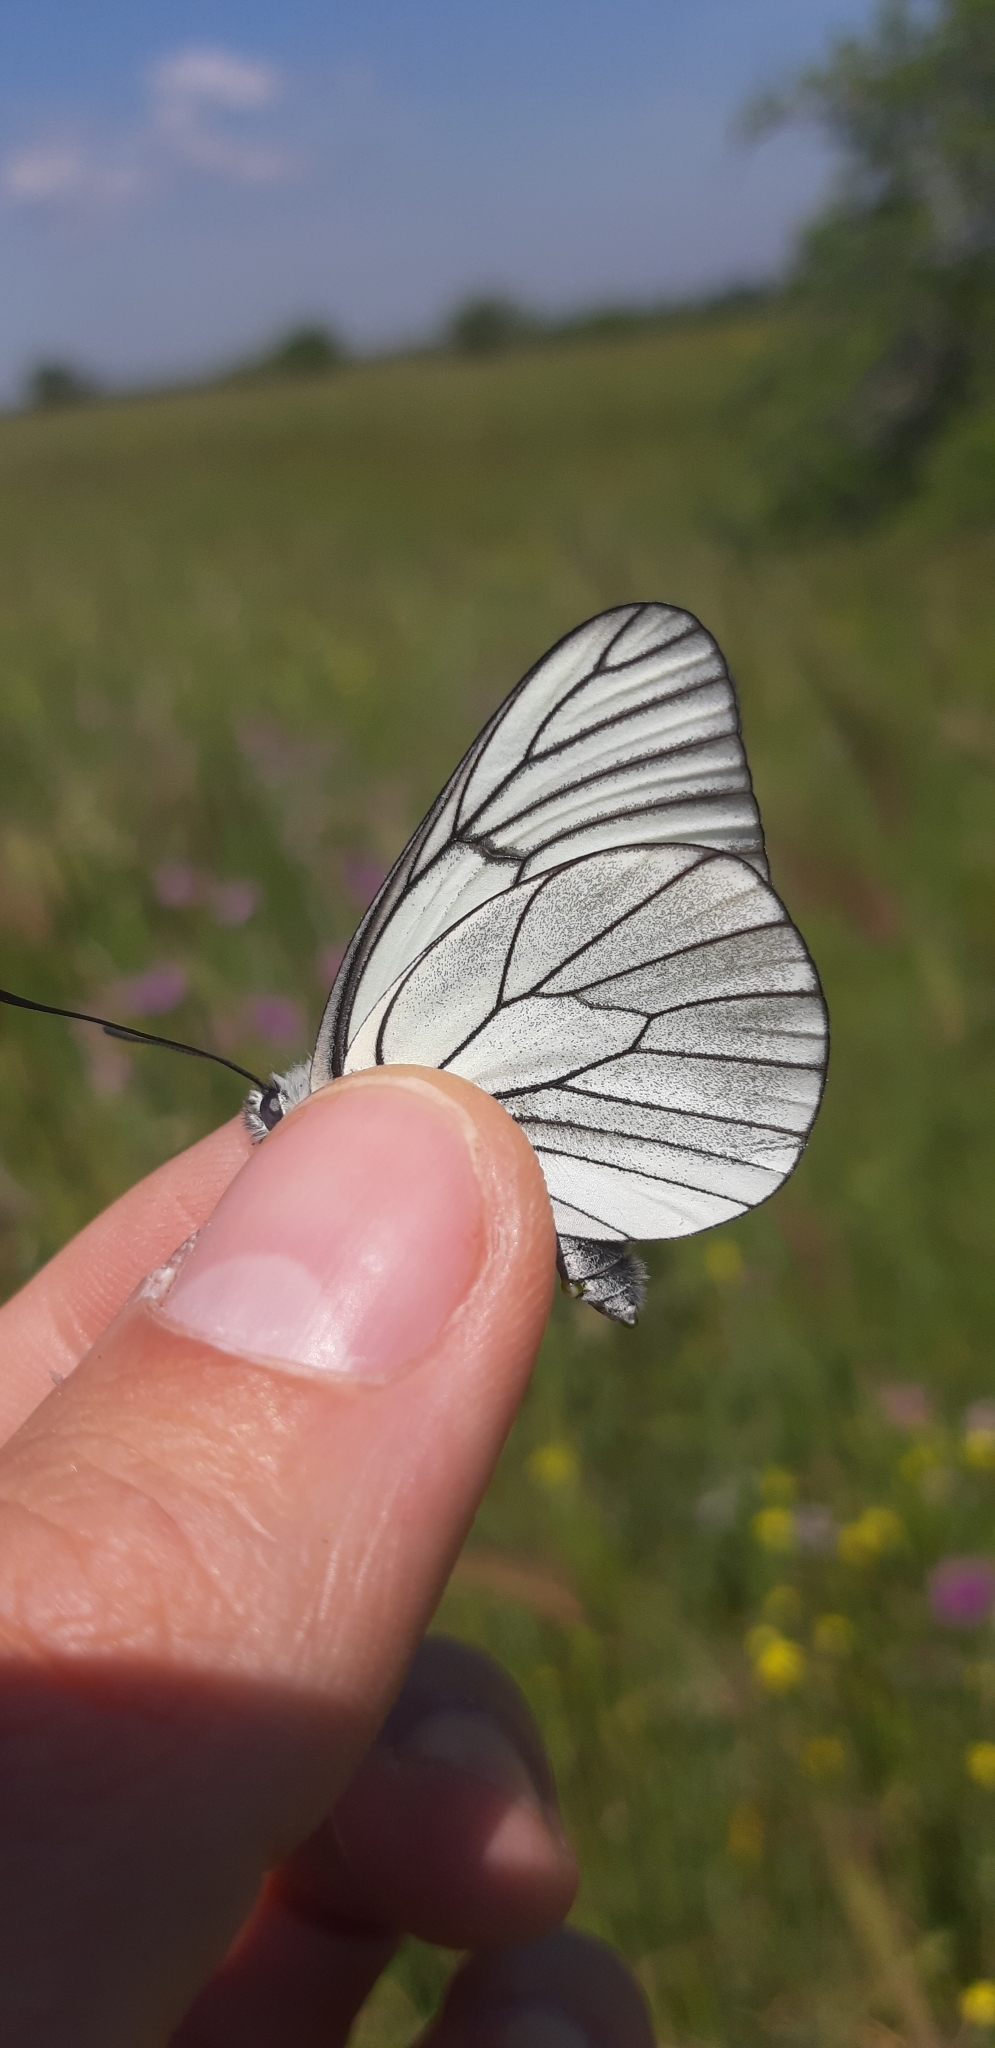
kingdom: Animalia
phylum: Arthropoda
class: Insecta
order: Lepidoptera
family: Pieridae
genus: Aporia
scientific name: Aporia crataegi
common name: Black-veined white
